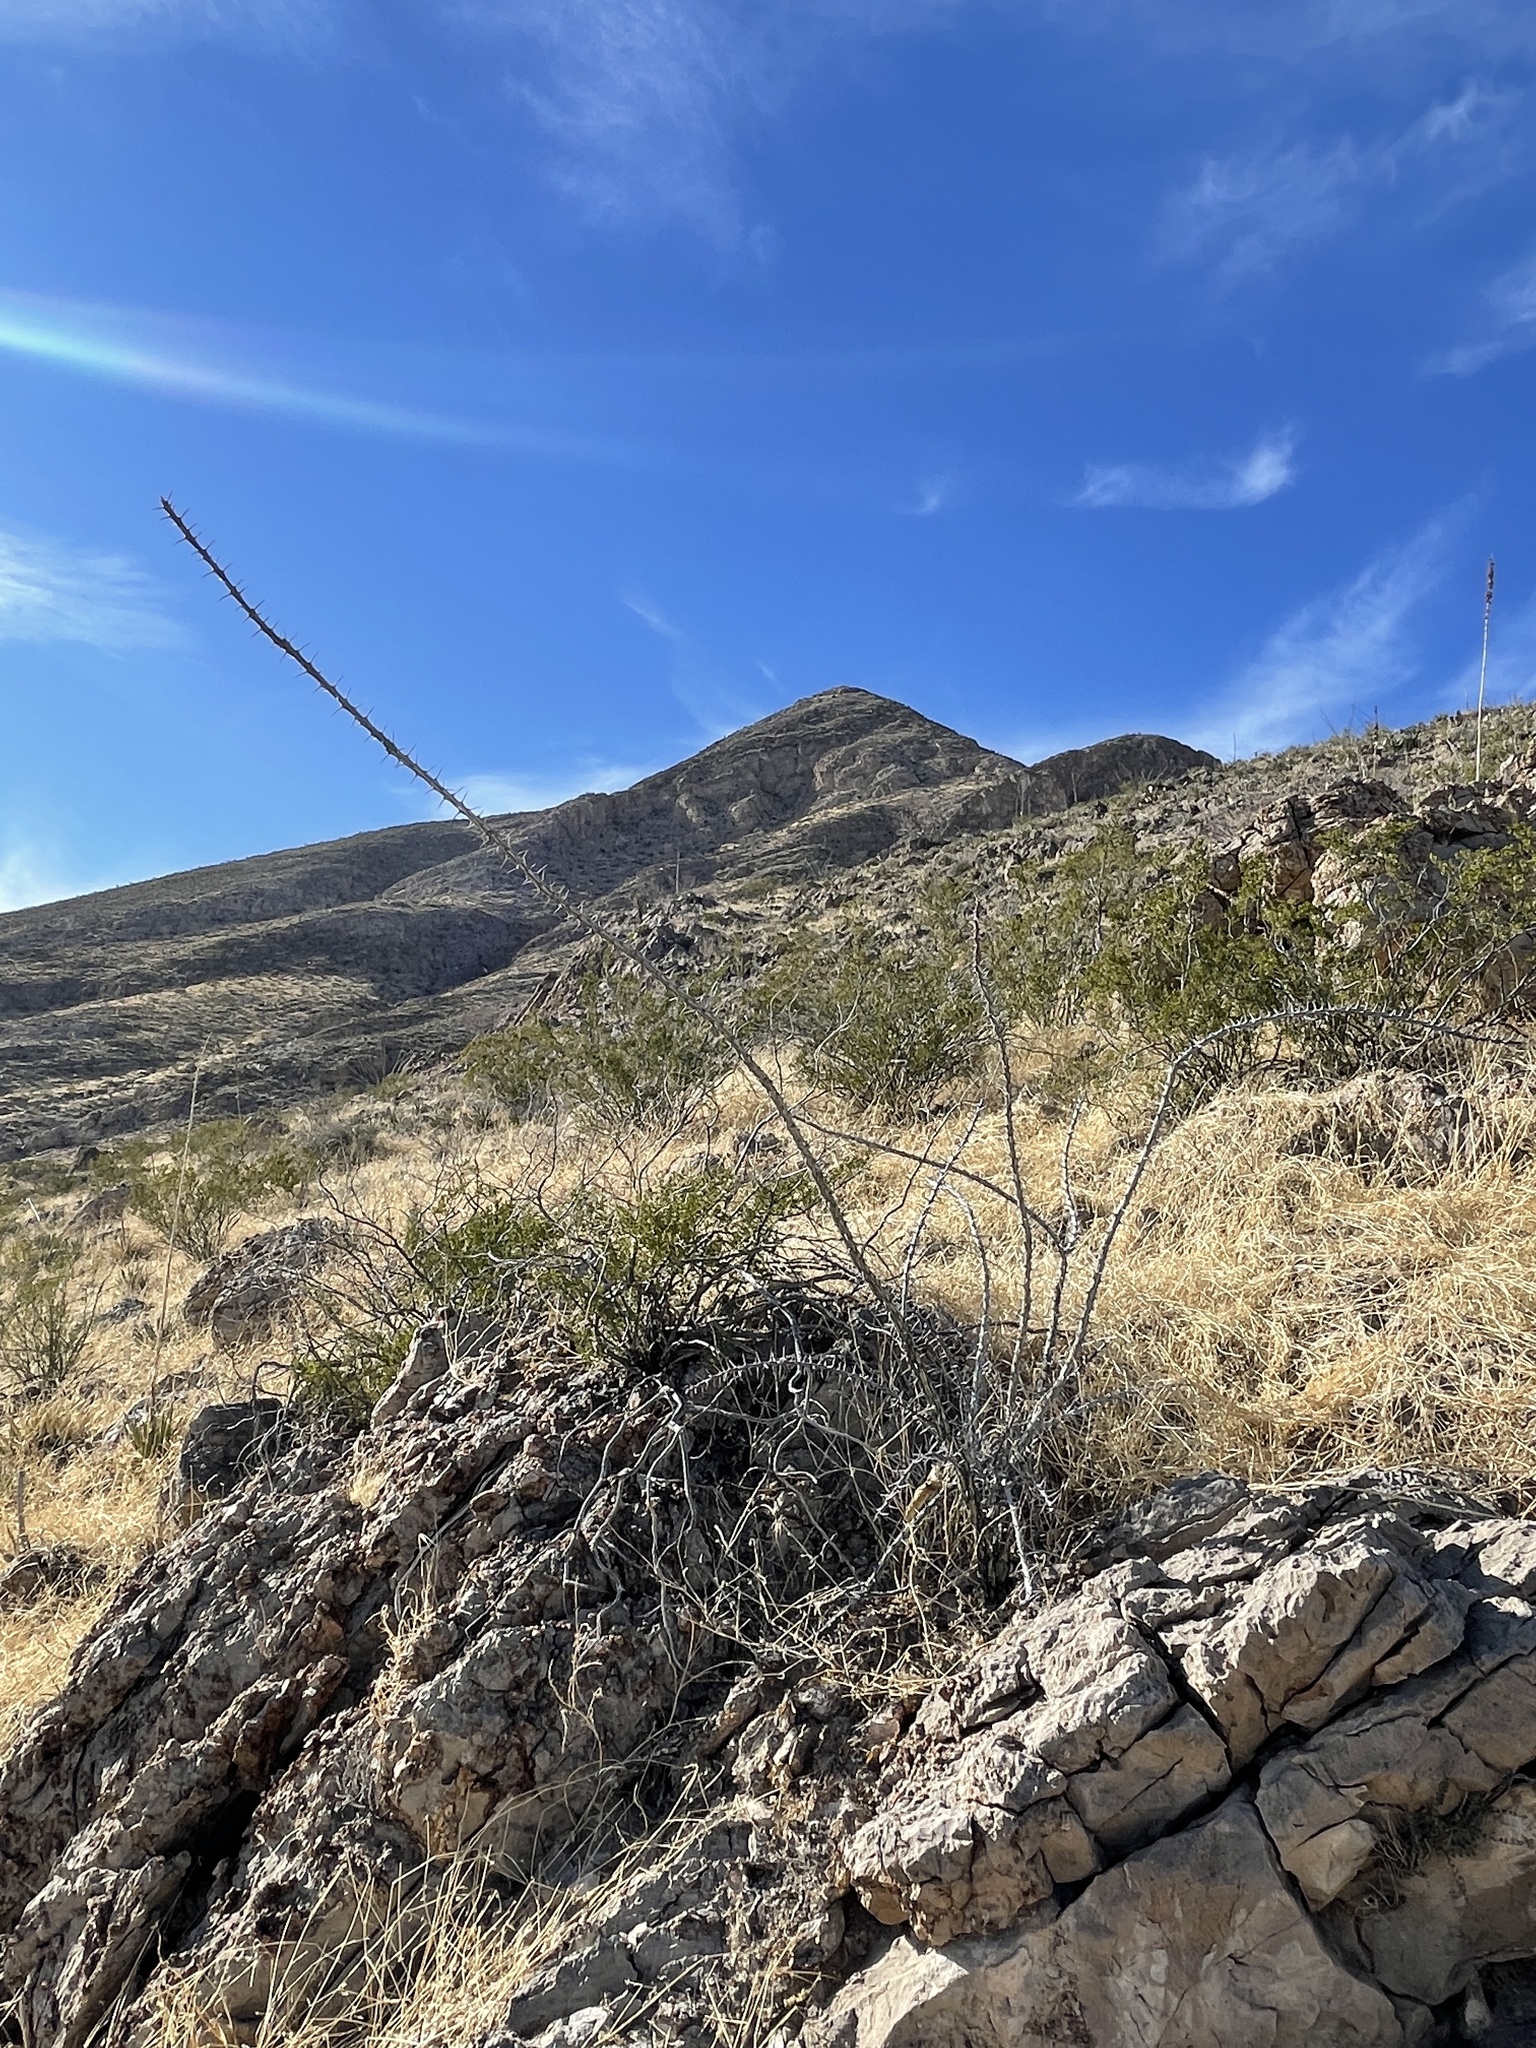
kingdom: Plantae
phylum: Tracheophyta
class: Magnoliopsida
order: Ericales
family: Fouquieriaceae
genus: Fouquieria
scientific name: Fouquieria splendens
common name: Vine-cactus
